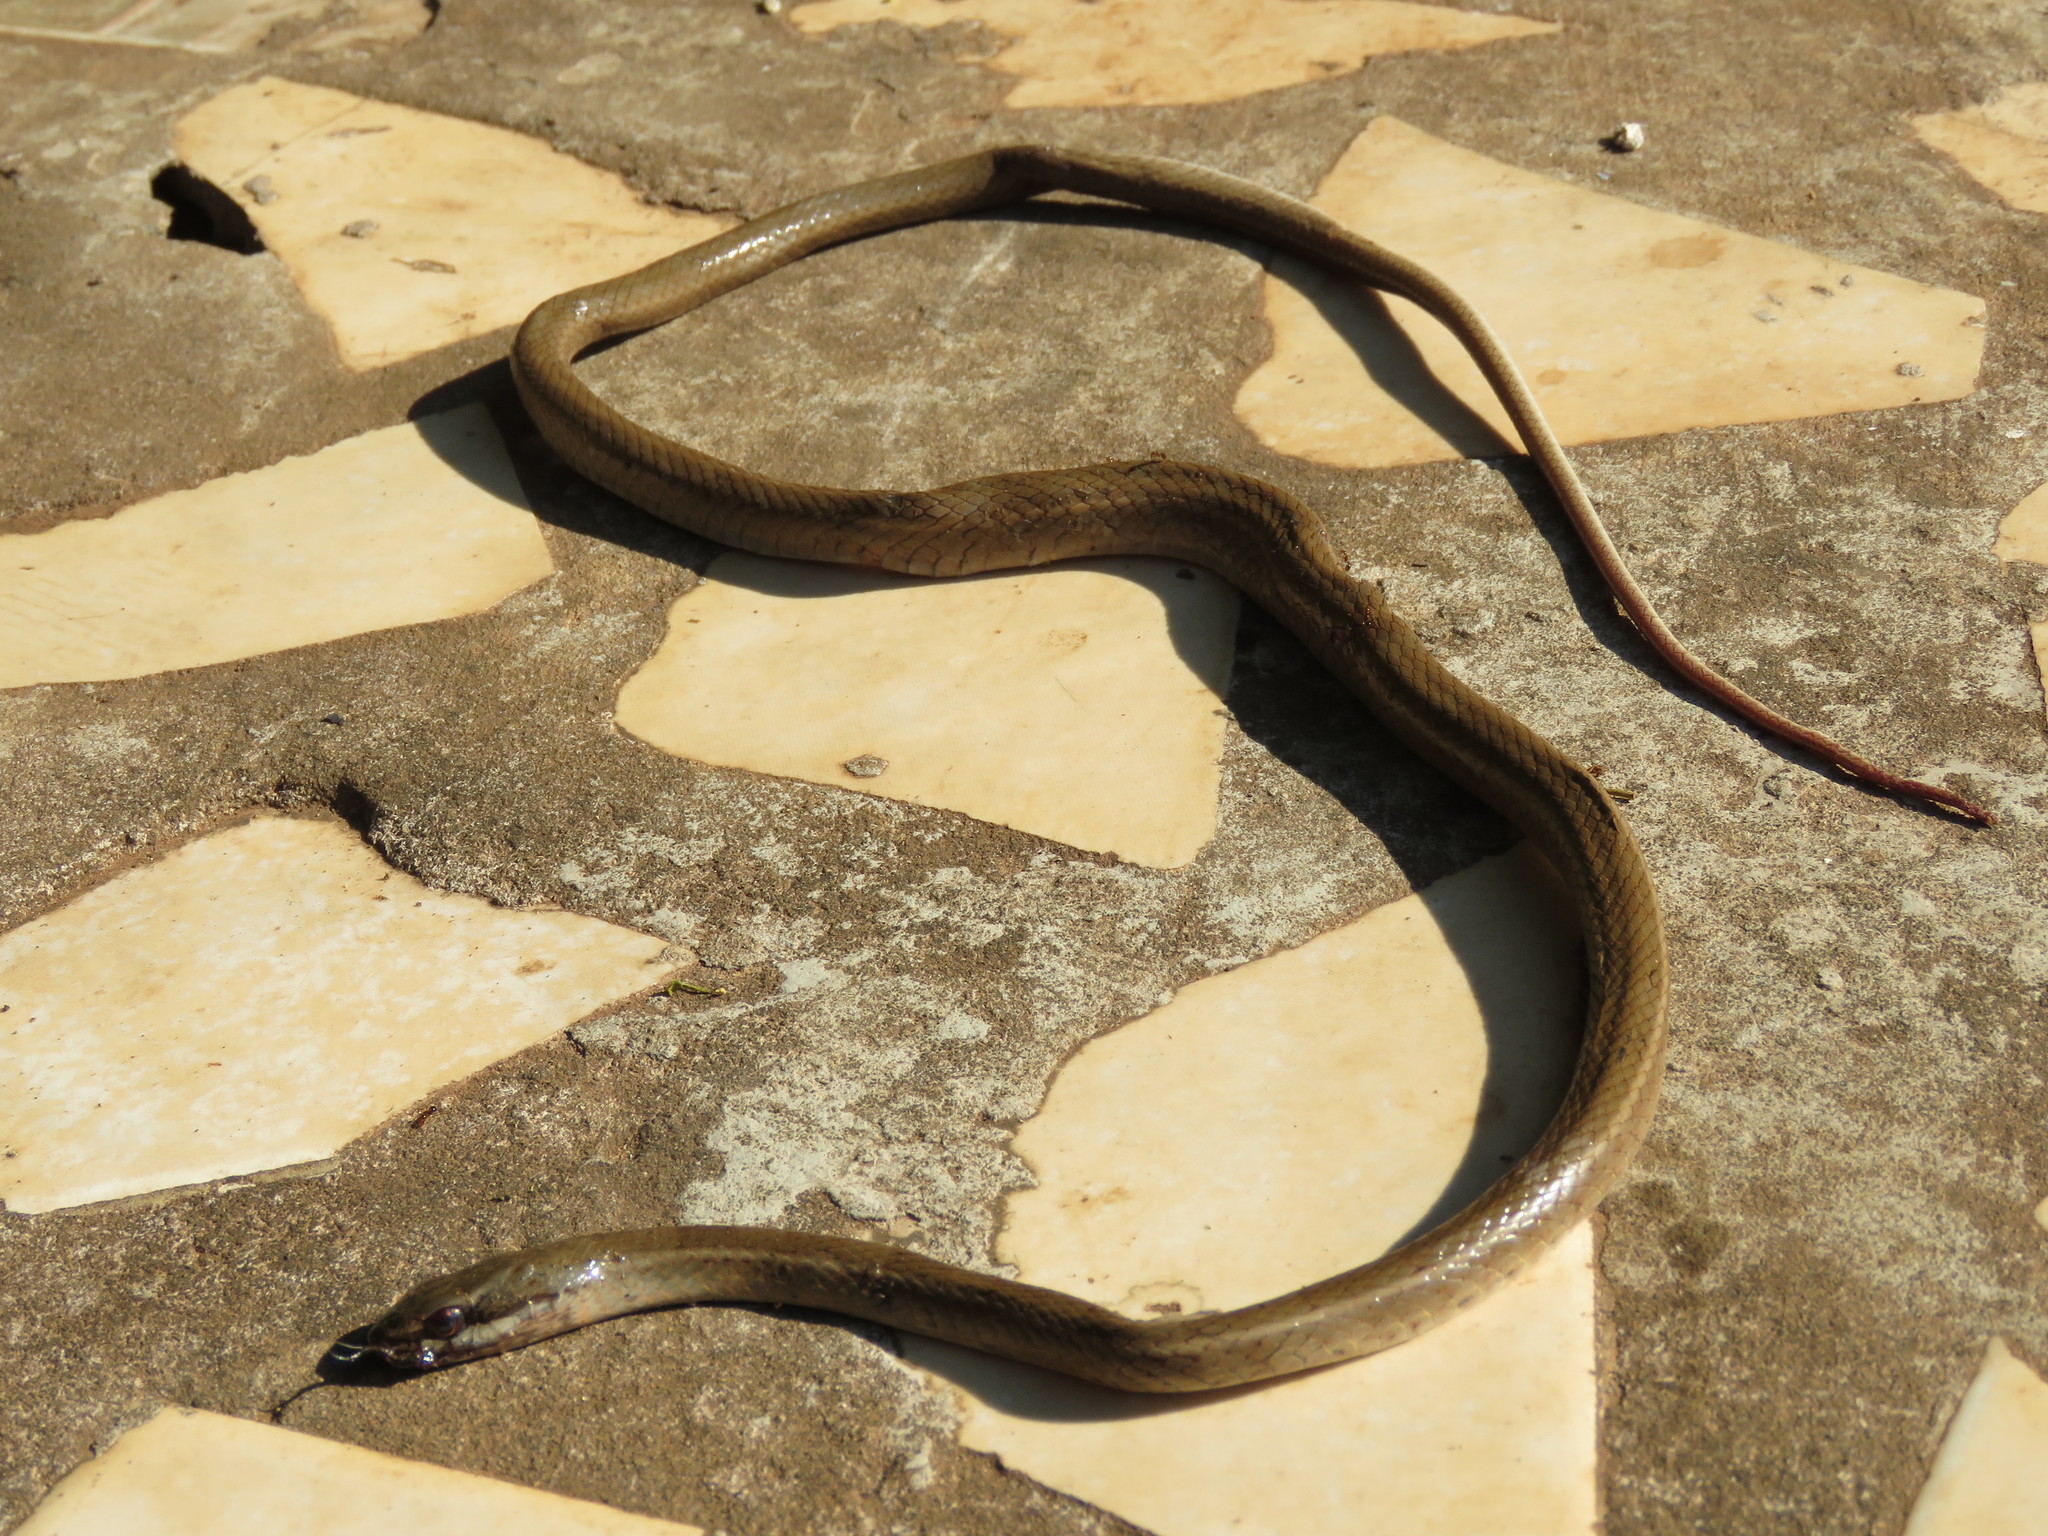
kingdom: Animalia
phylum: Chordata
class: Squamata
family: Colubridae
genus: Mastigodryas
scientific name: Mastigodryas boddaerti
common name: Boddaert's tropical racer
